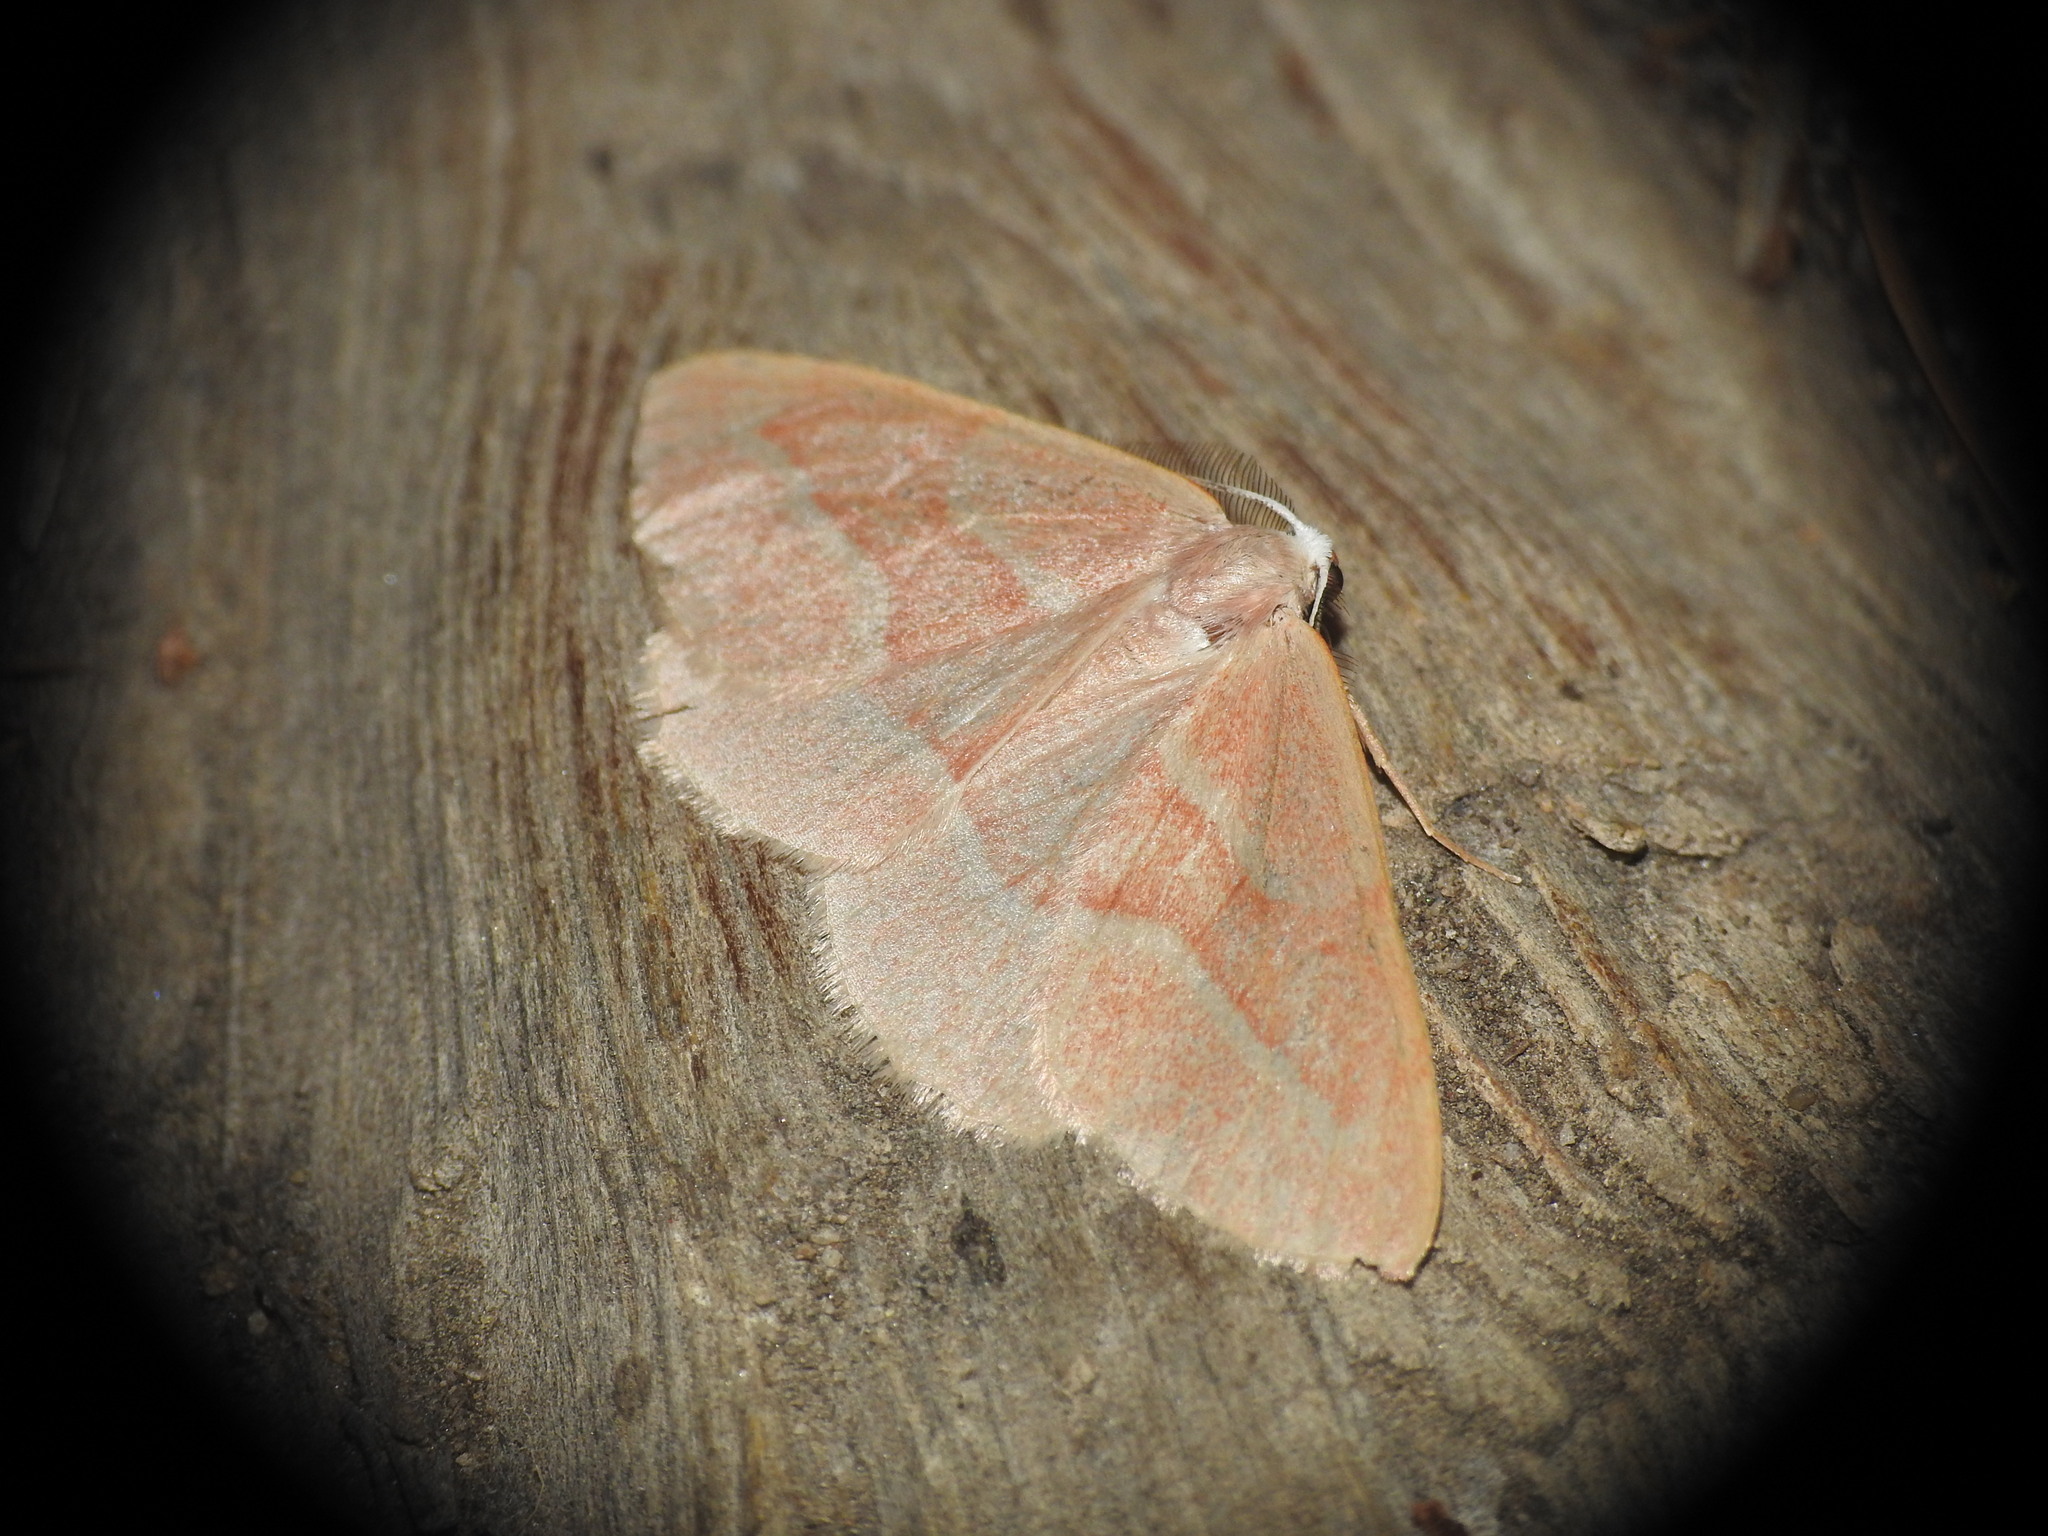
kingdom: Animalia
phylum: Arthropoda
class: Insecta
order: Lepidoptera
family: Geometridae
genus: Hylaea
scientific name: Hylaea fasciaria
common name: Barred red
